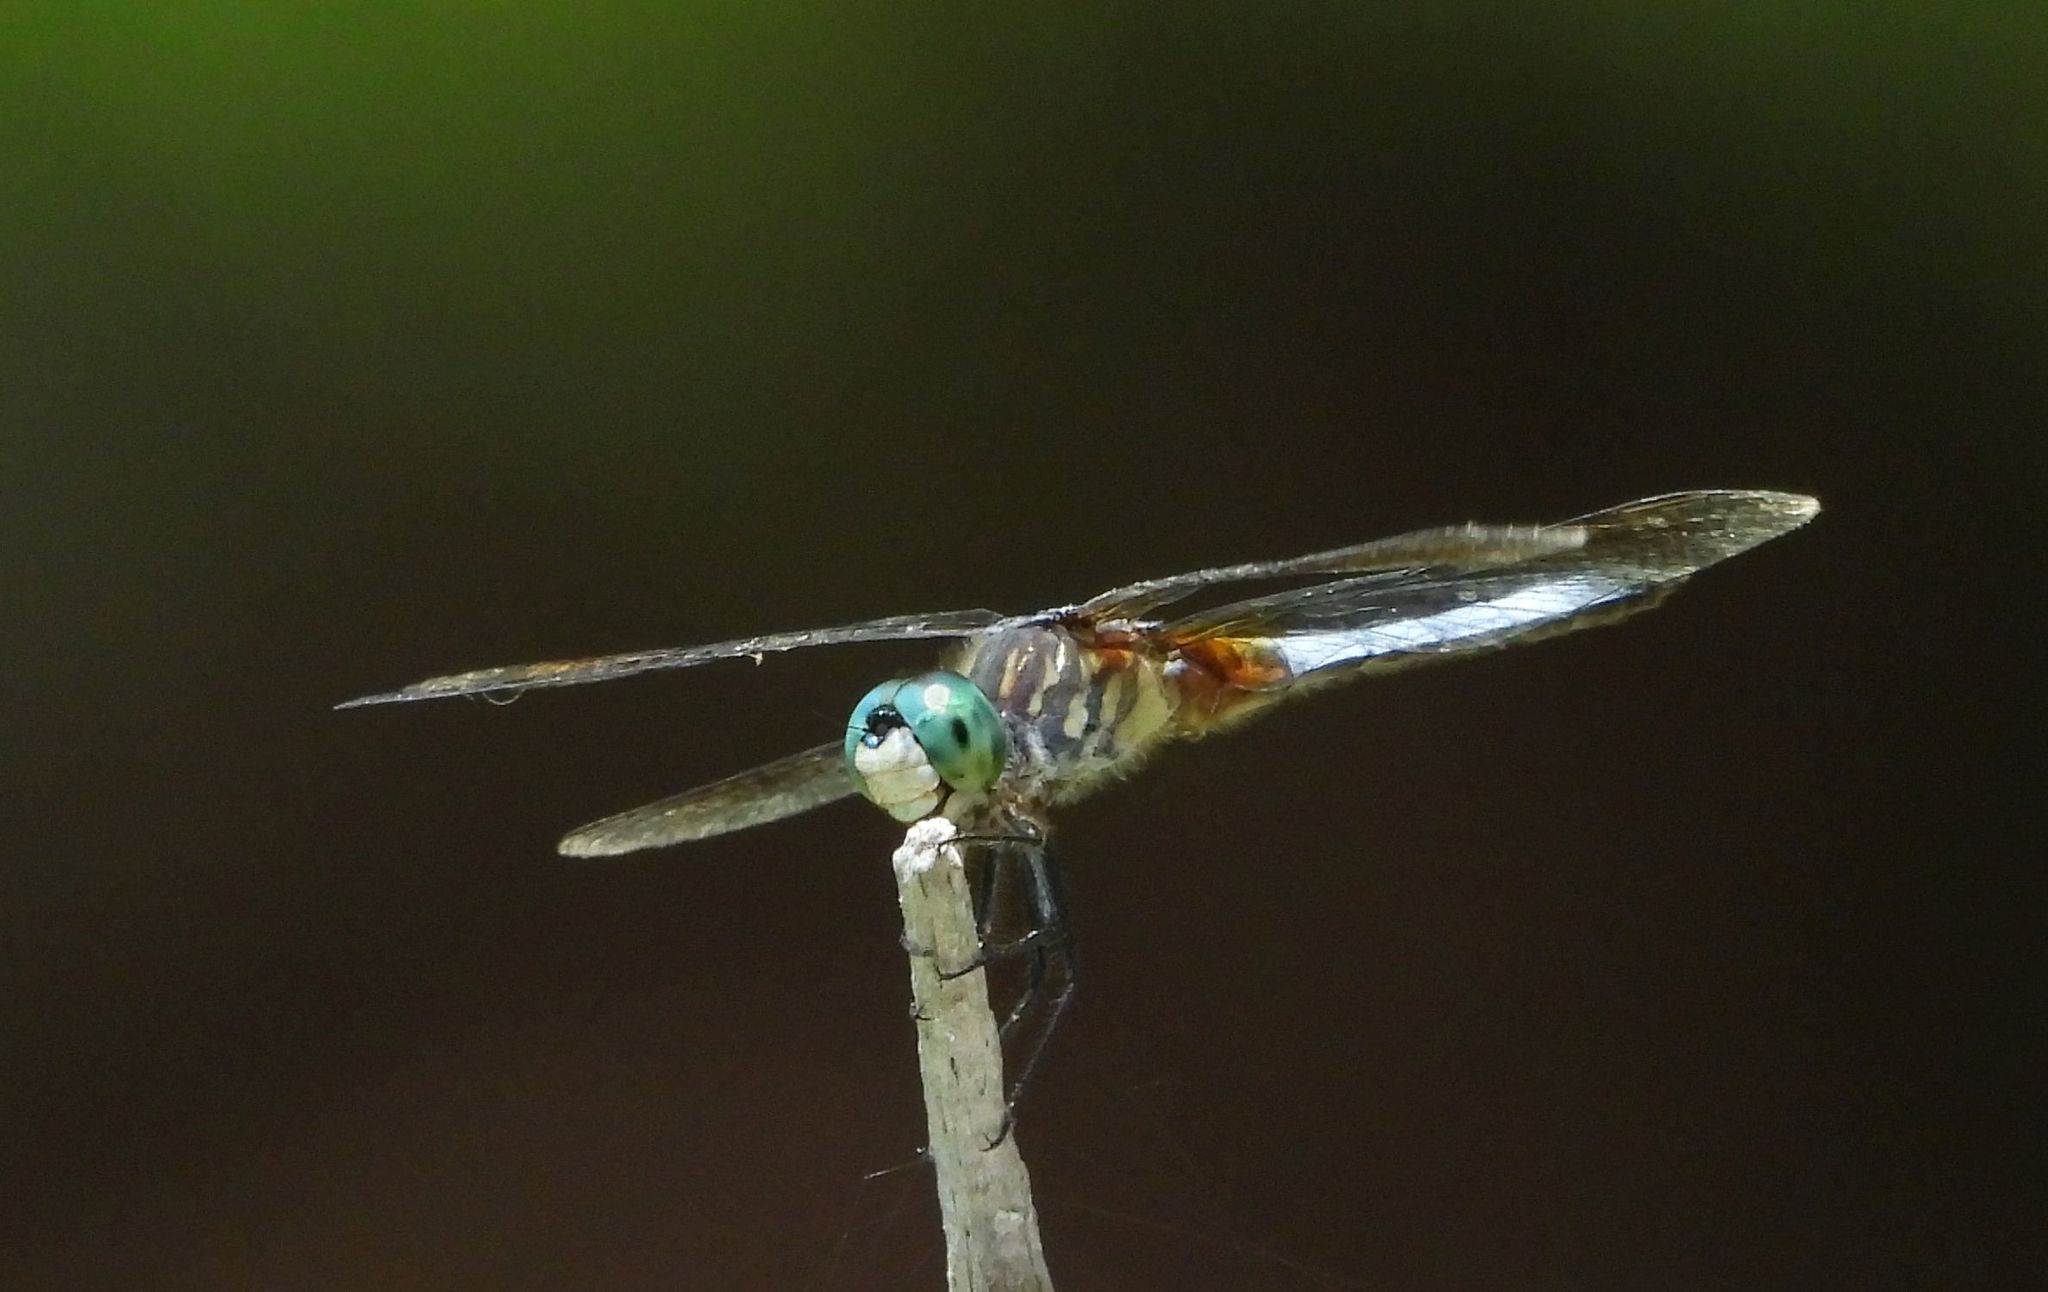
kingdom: Animalia
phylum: Arthropoda
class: Insecta
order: Odonata
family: Libellulidae
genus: Pachydiplax
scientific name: Pachydiplax longipennis
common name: Blue dasher
